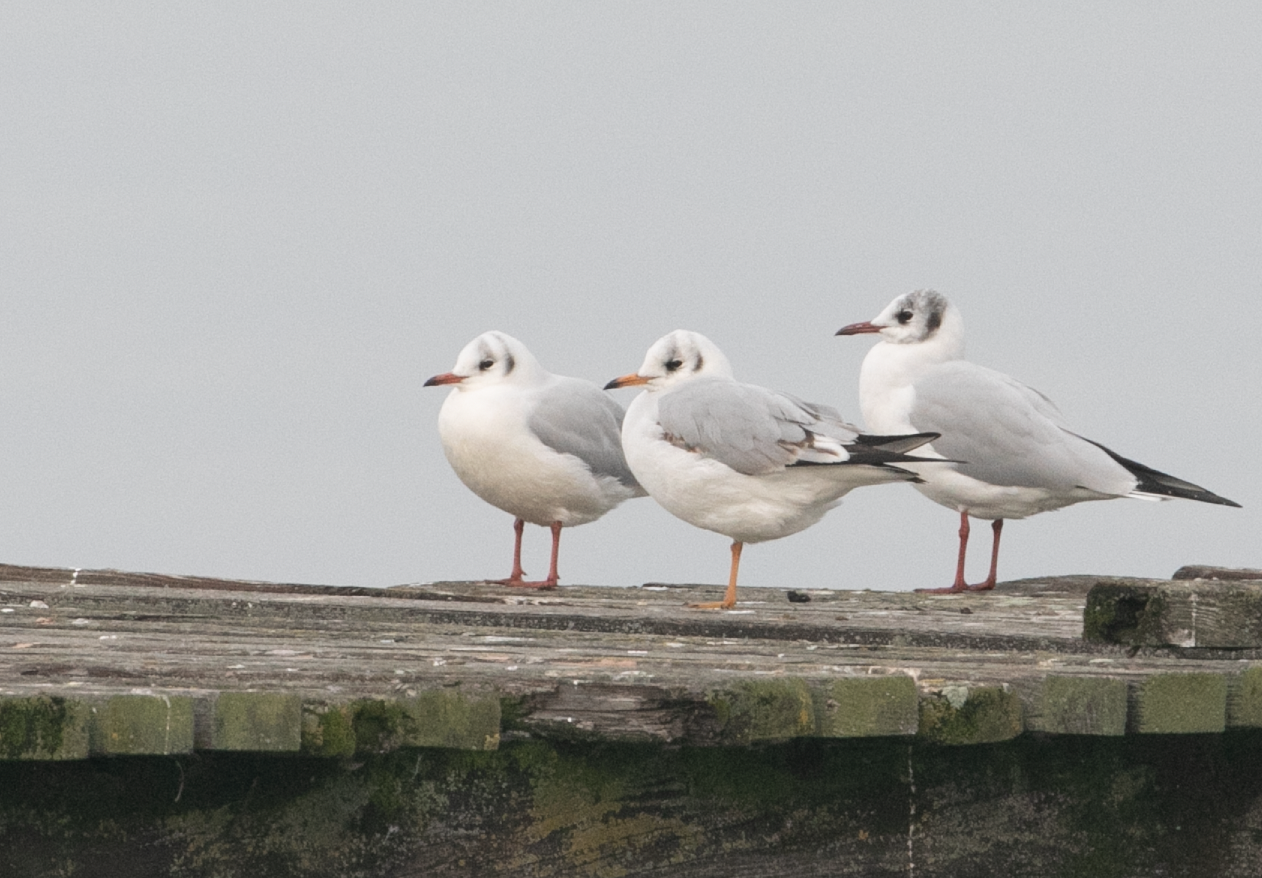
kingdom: Animalia
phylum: Chordata
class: Aves
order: Charadriiformes
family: Laridae
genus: Chroicocephalus
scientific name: Chroicocephalus ridibundus
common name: Black-headed gull
